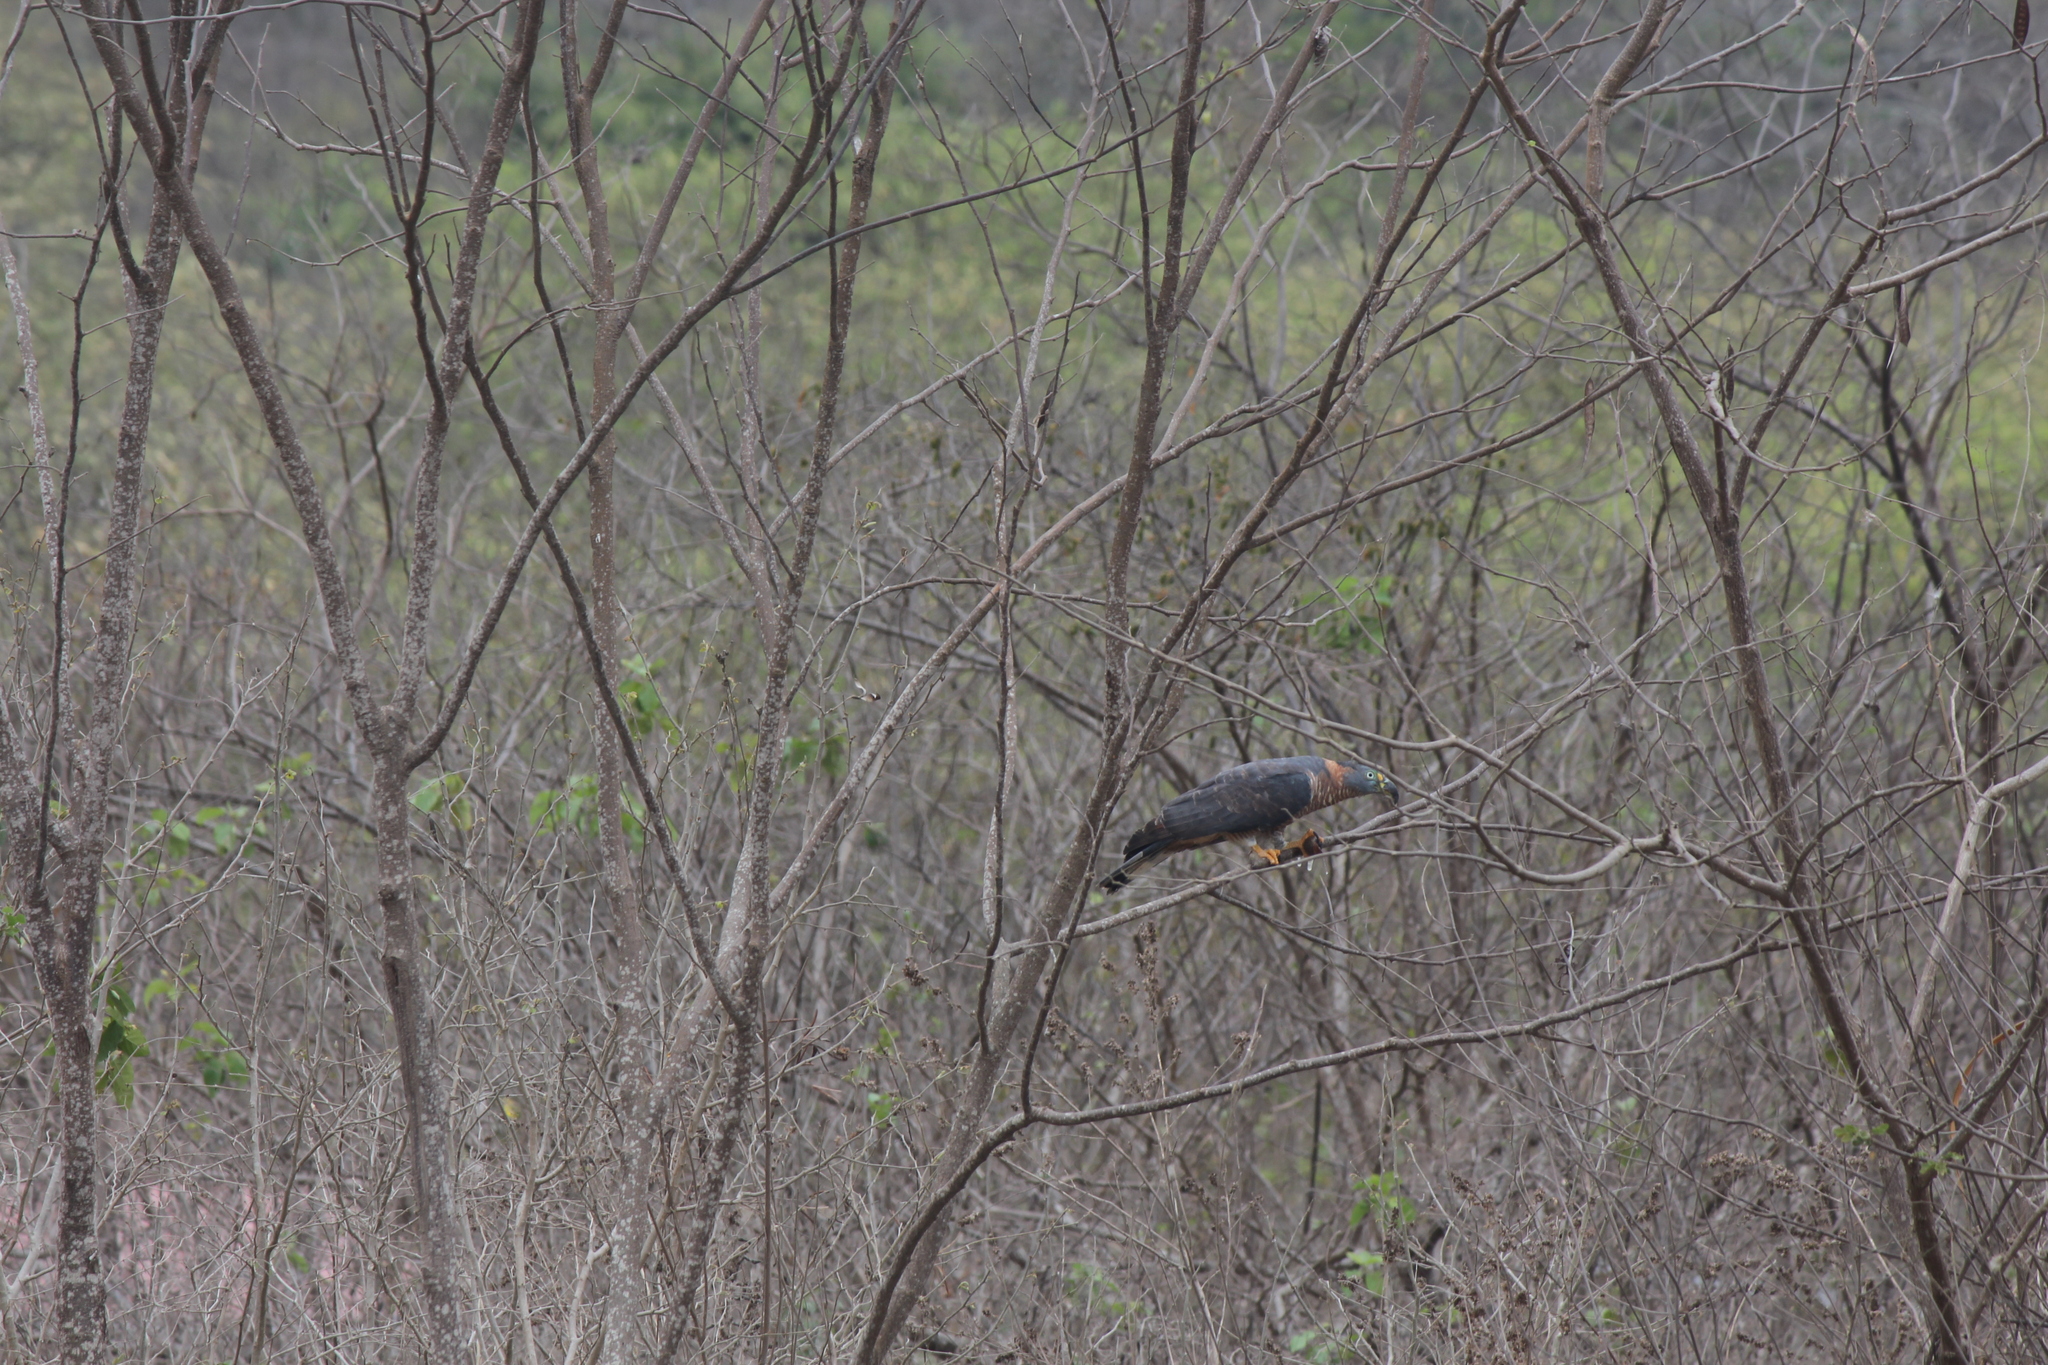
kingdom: Animalia
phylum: Chordata
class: Aves
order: Accipitriformes
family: Accipitridae
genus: Chondrohierax
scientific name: Chondrohierax uncinatus
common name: Hook-billed kite
